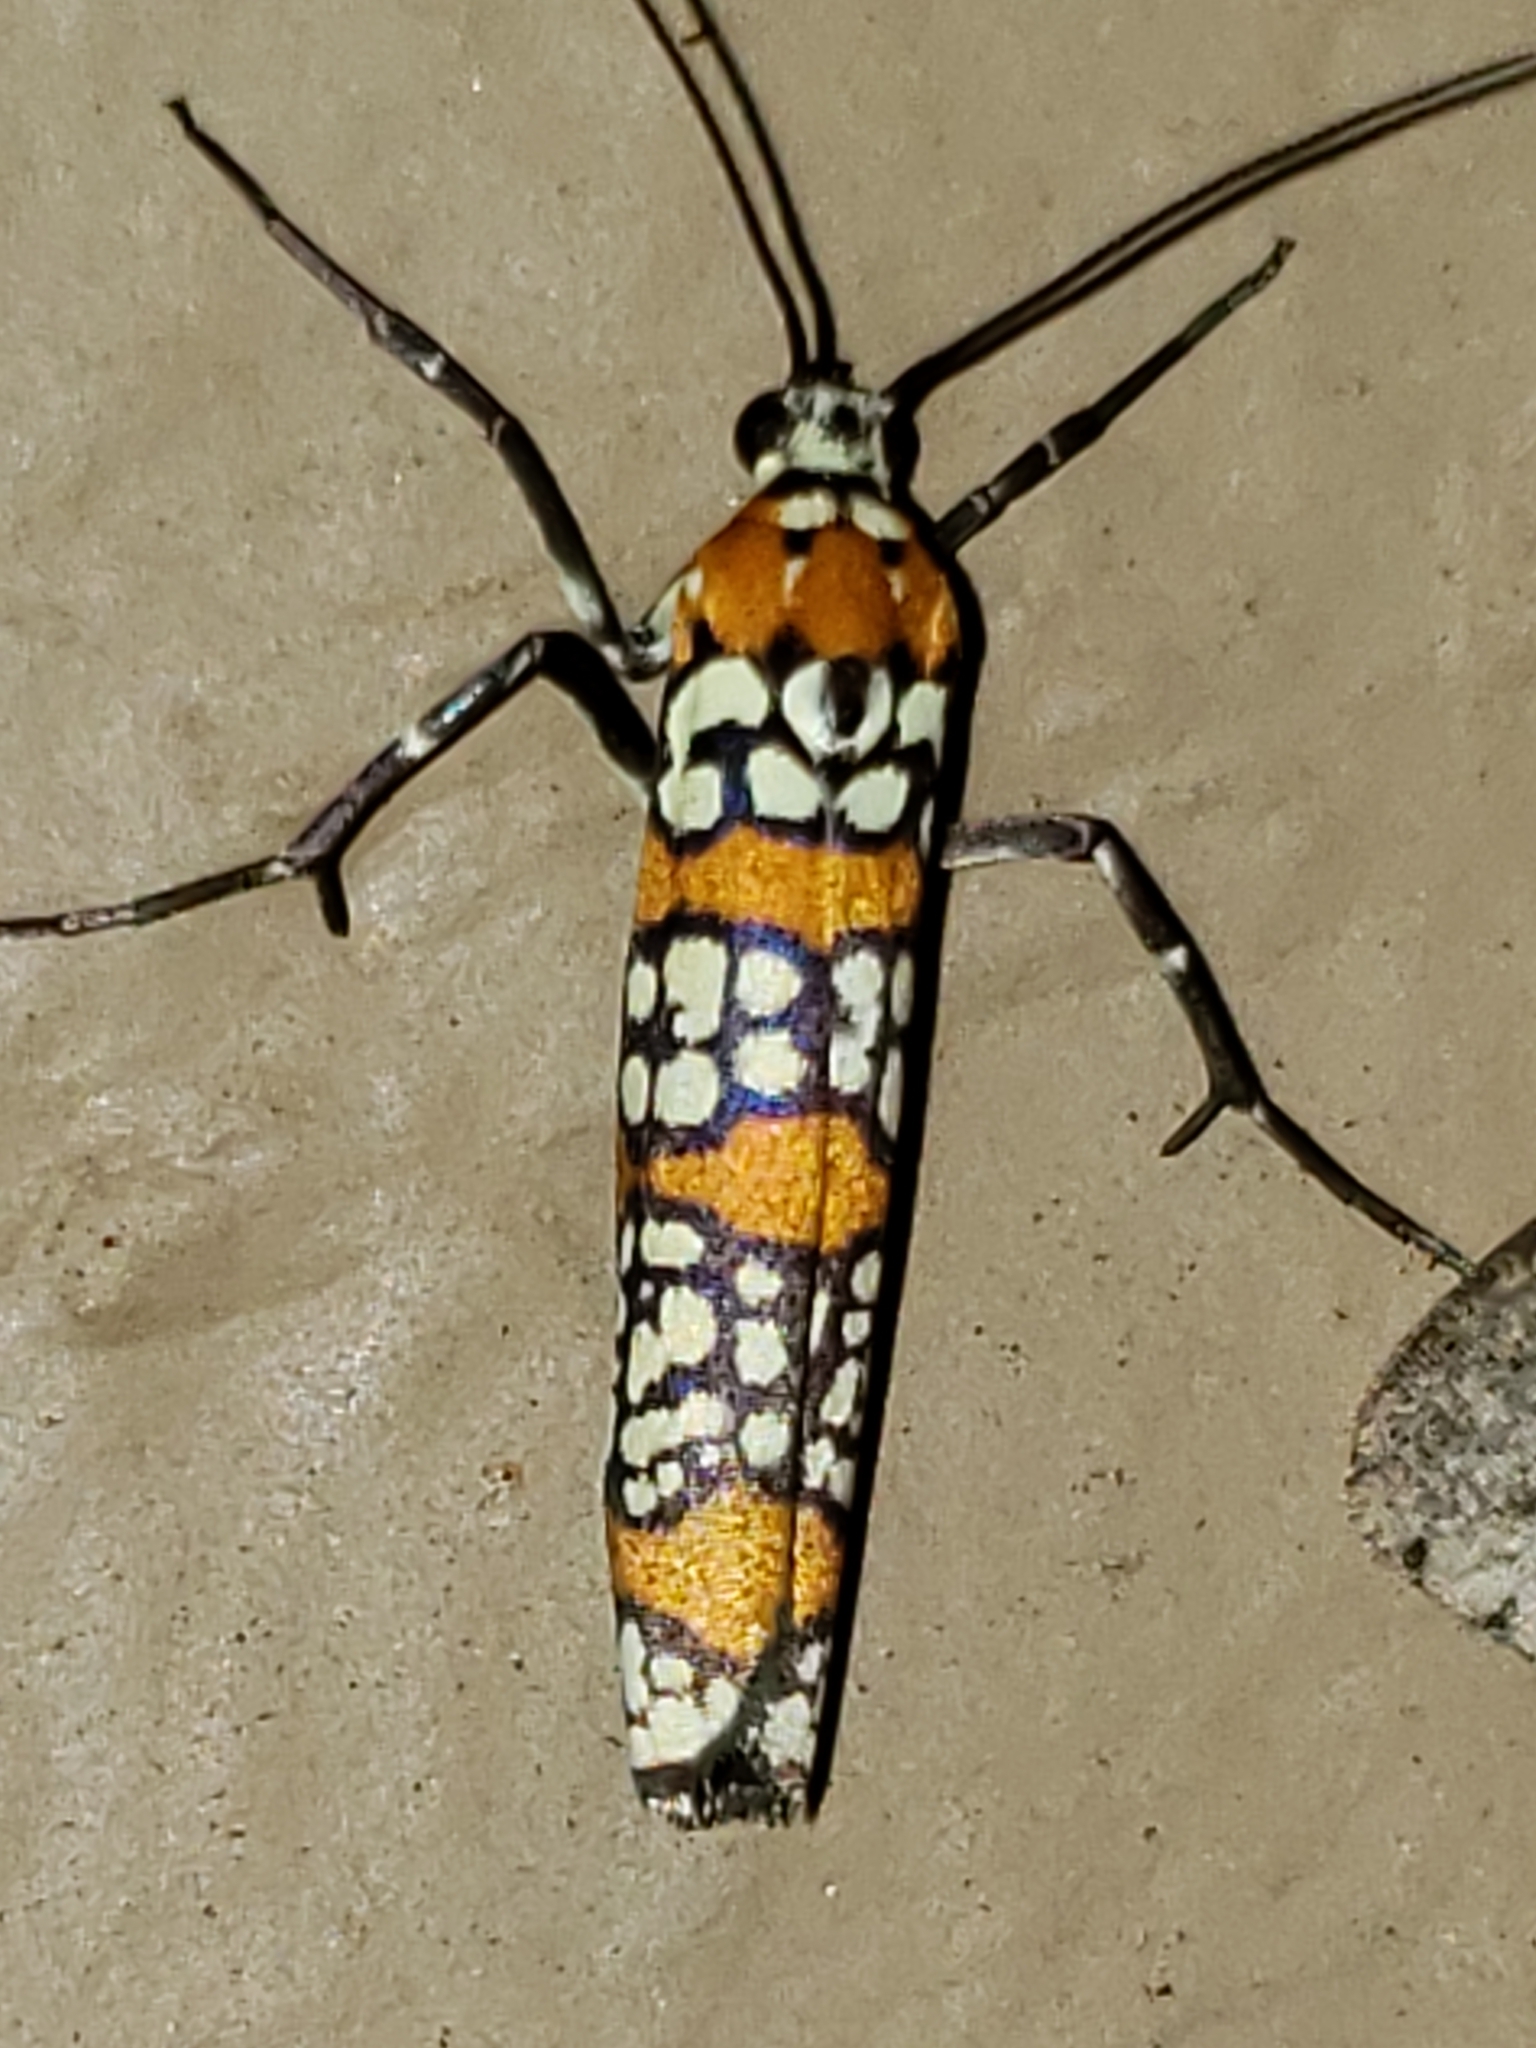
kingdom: Animalia
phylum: Arthropoda
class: Insecta
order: Lepidoptera
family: Attevidae
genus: Atteva
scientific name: Atteva punctella
